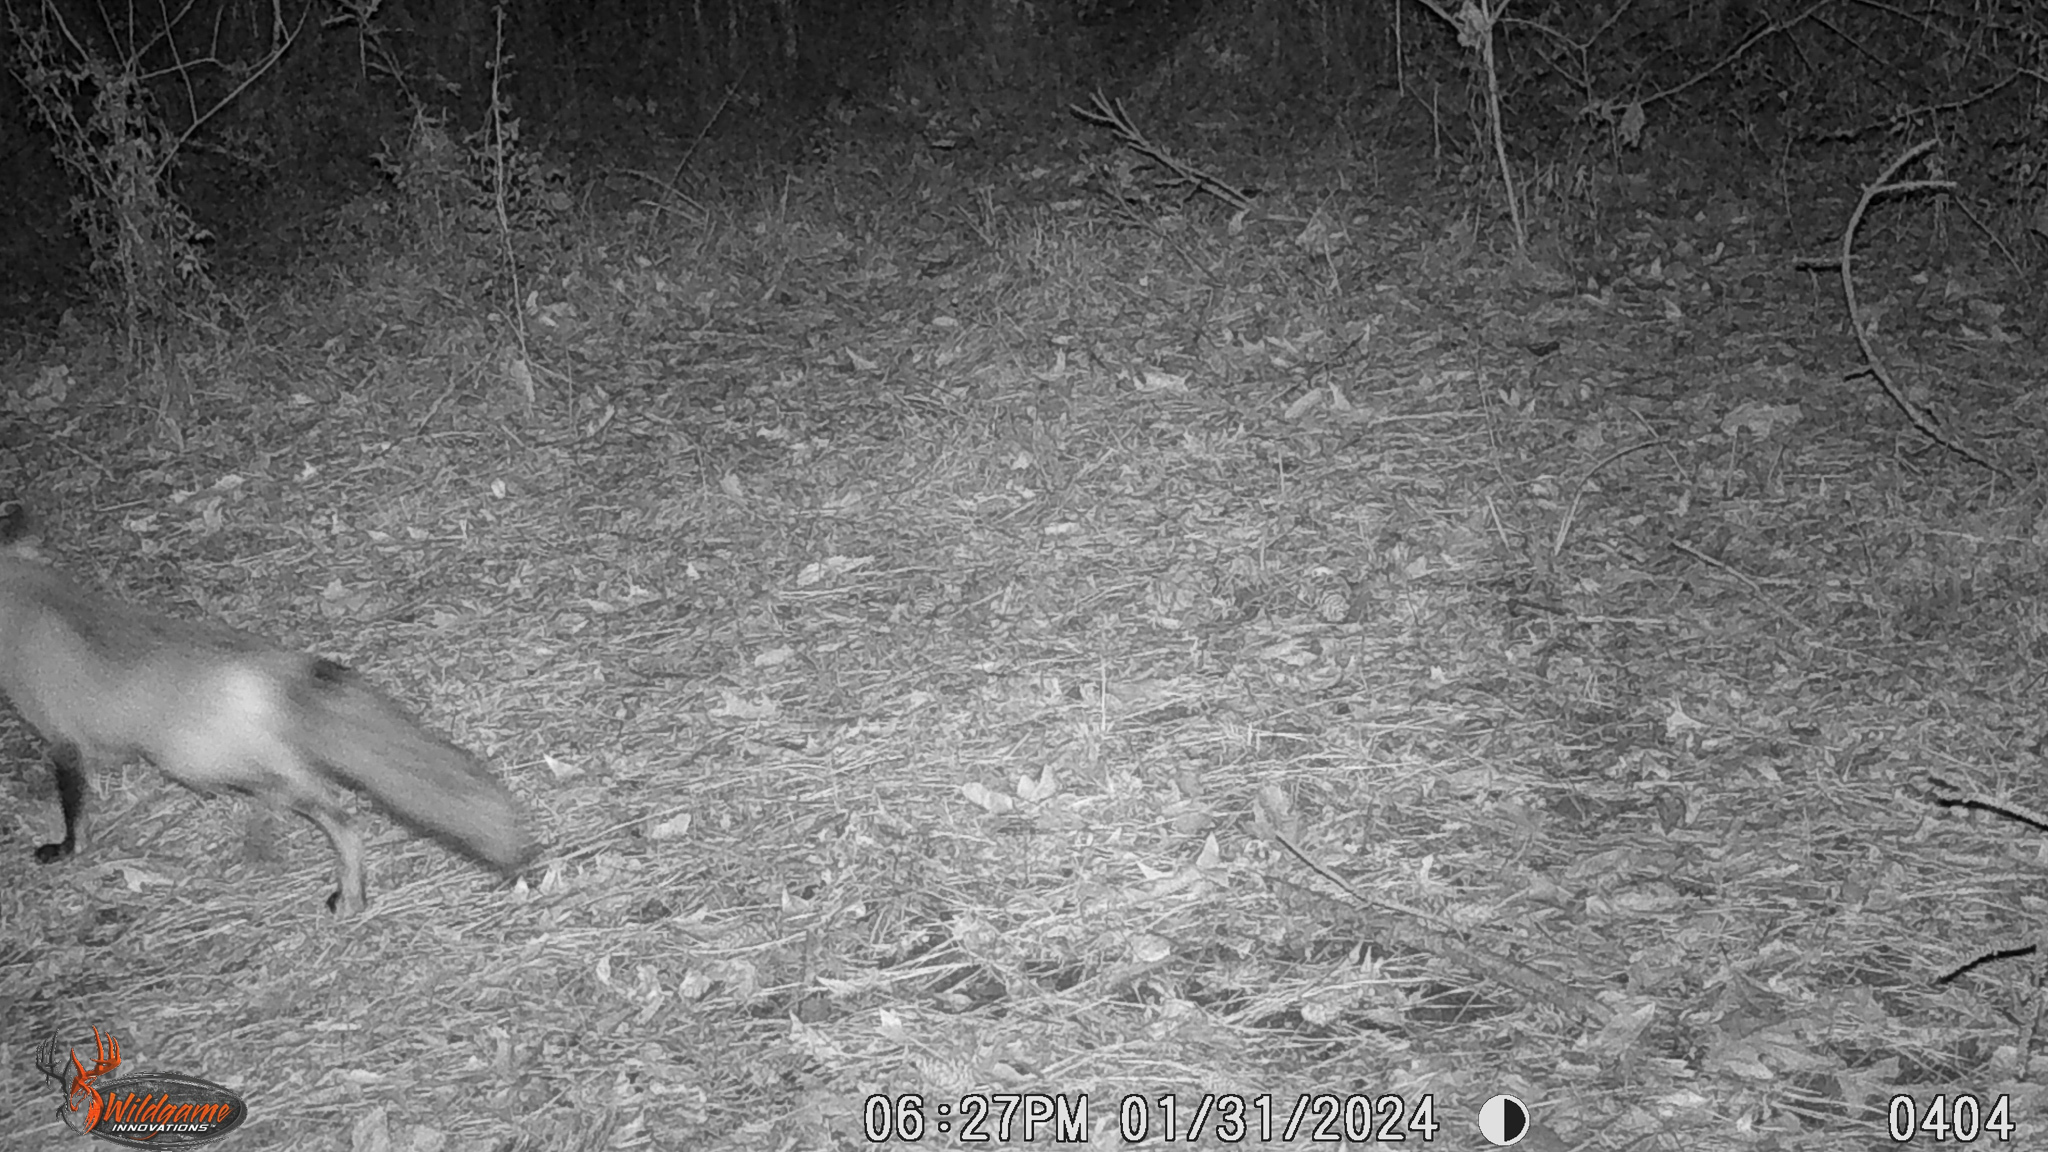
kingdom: Animalia
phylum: Chordata
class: Mammalia
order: Carnivora
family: Canidae
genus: Vulpes
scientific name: Vulpes vulpes
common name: Red fox
